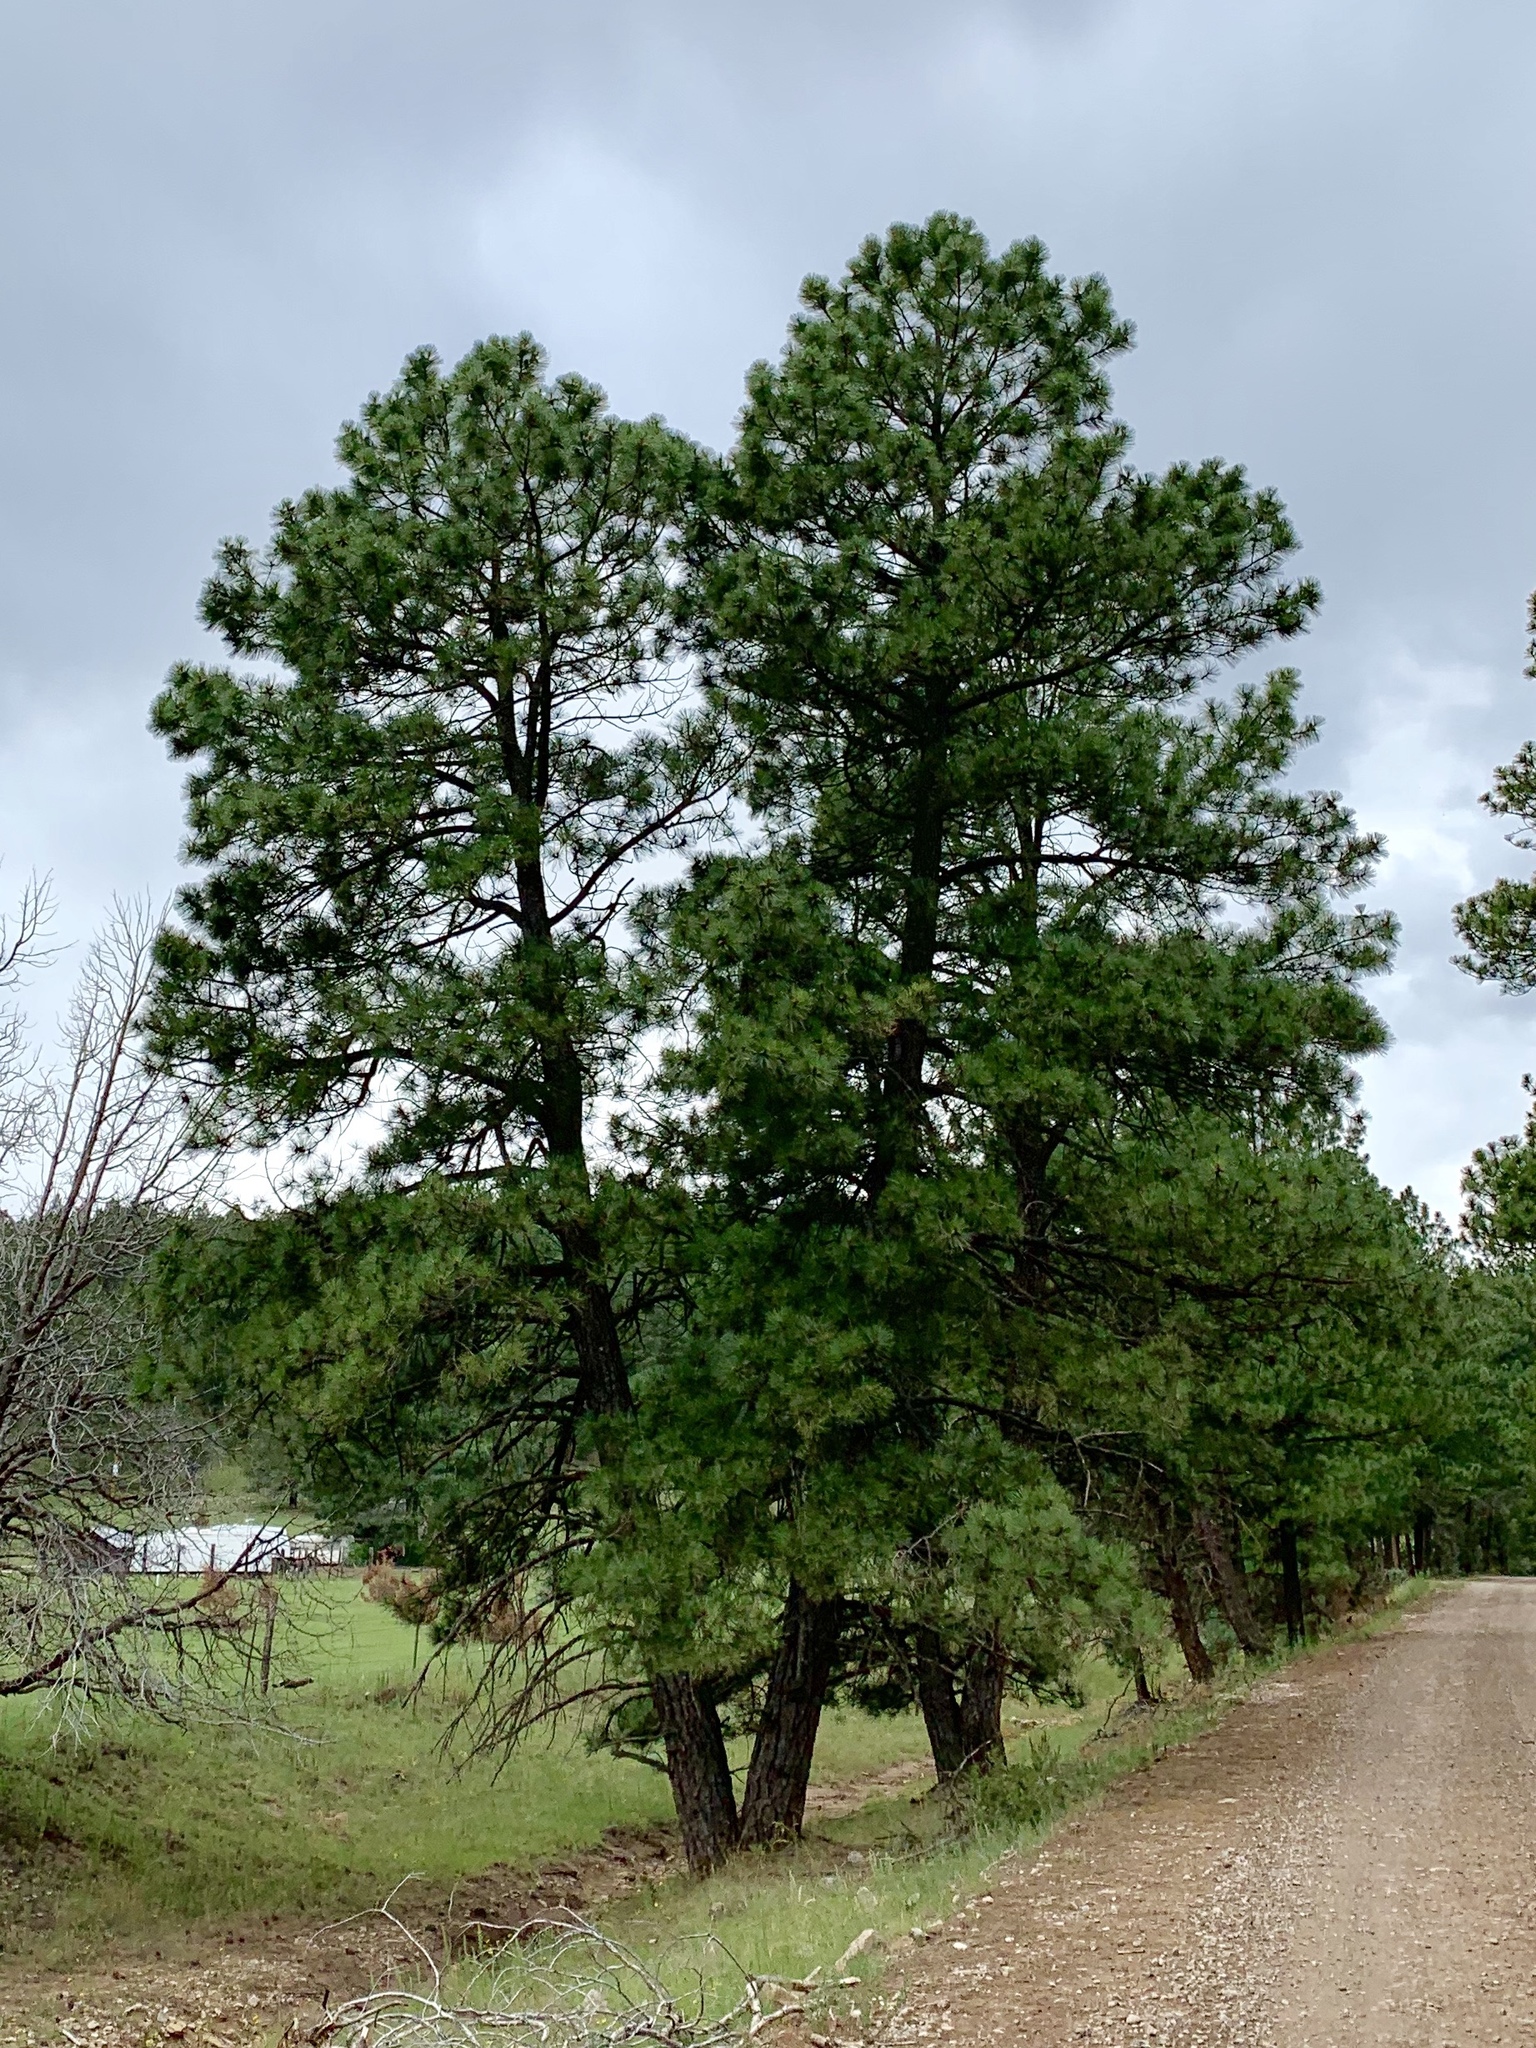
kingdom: Plantae
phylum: Tracheophyta
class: Pinopsida
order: Pinales
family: Pinaceae
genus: Pinus
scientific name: Pinus ponderosa
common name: Western yellow-pine
